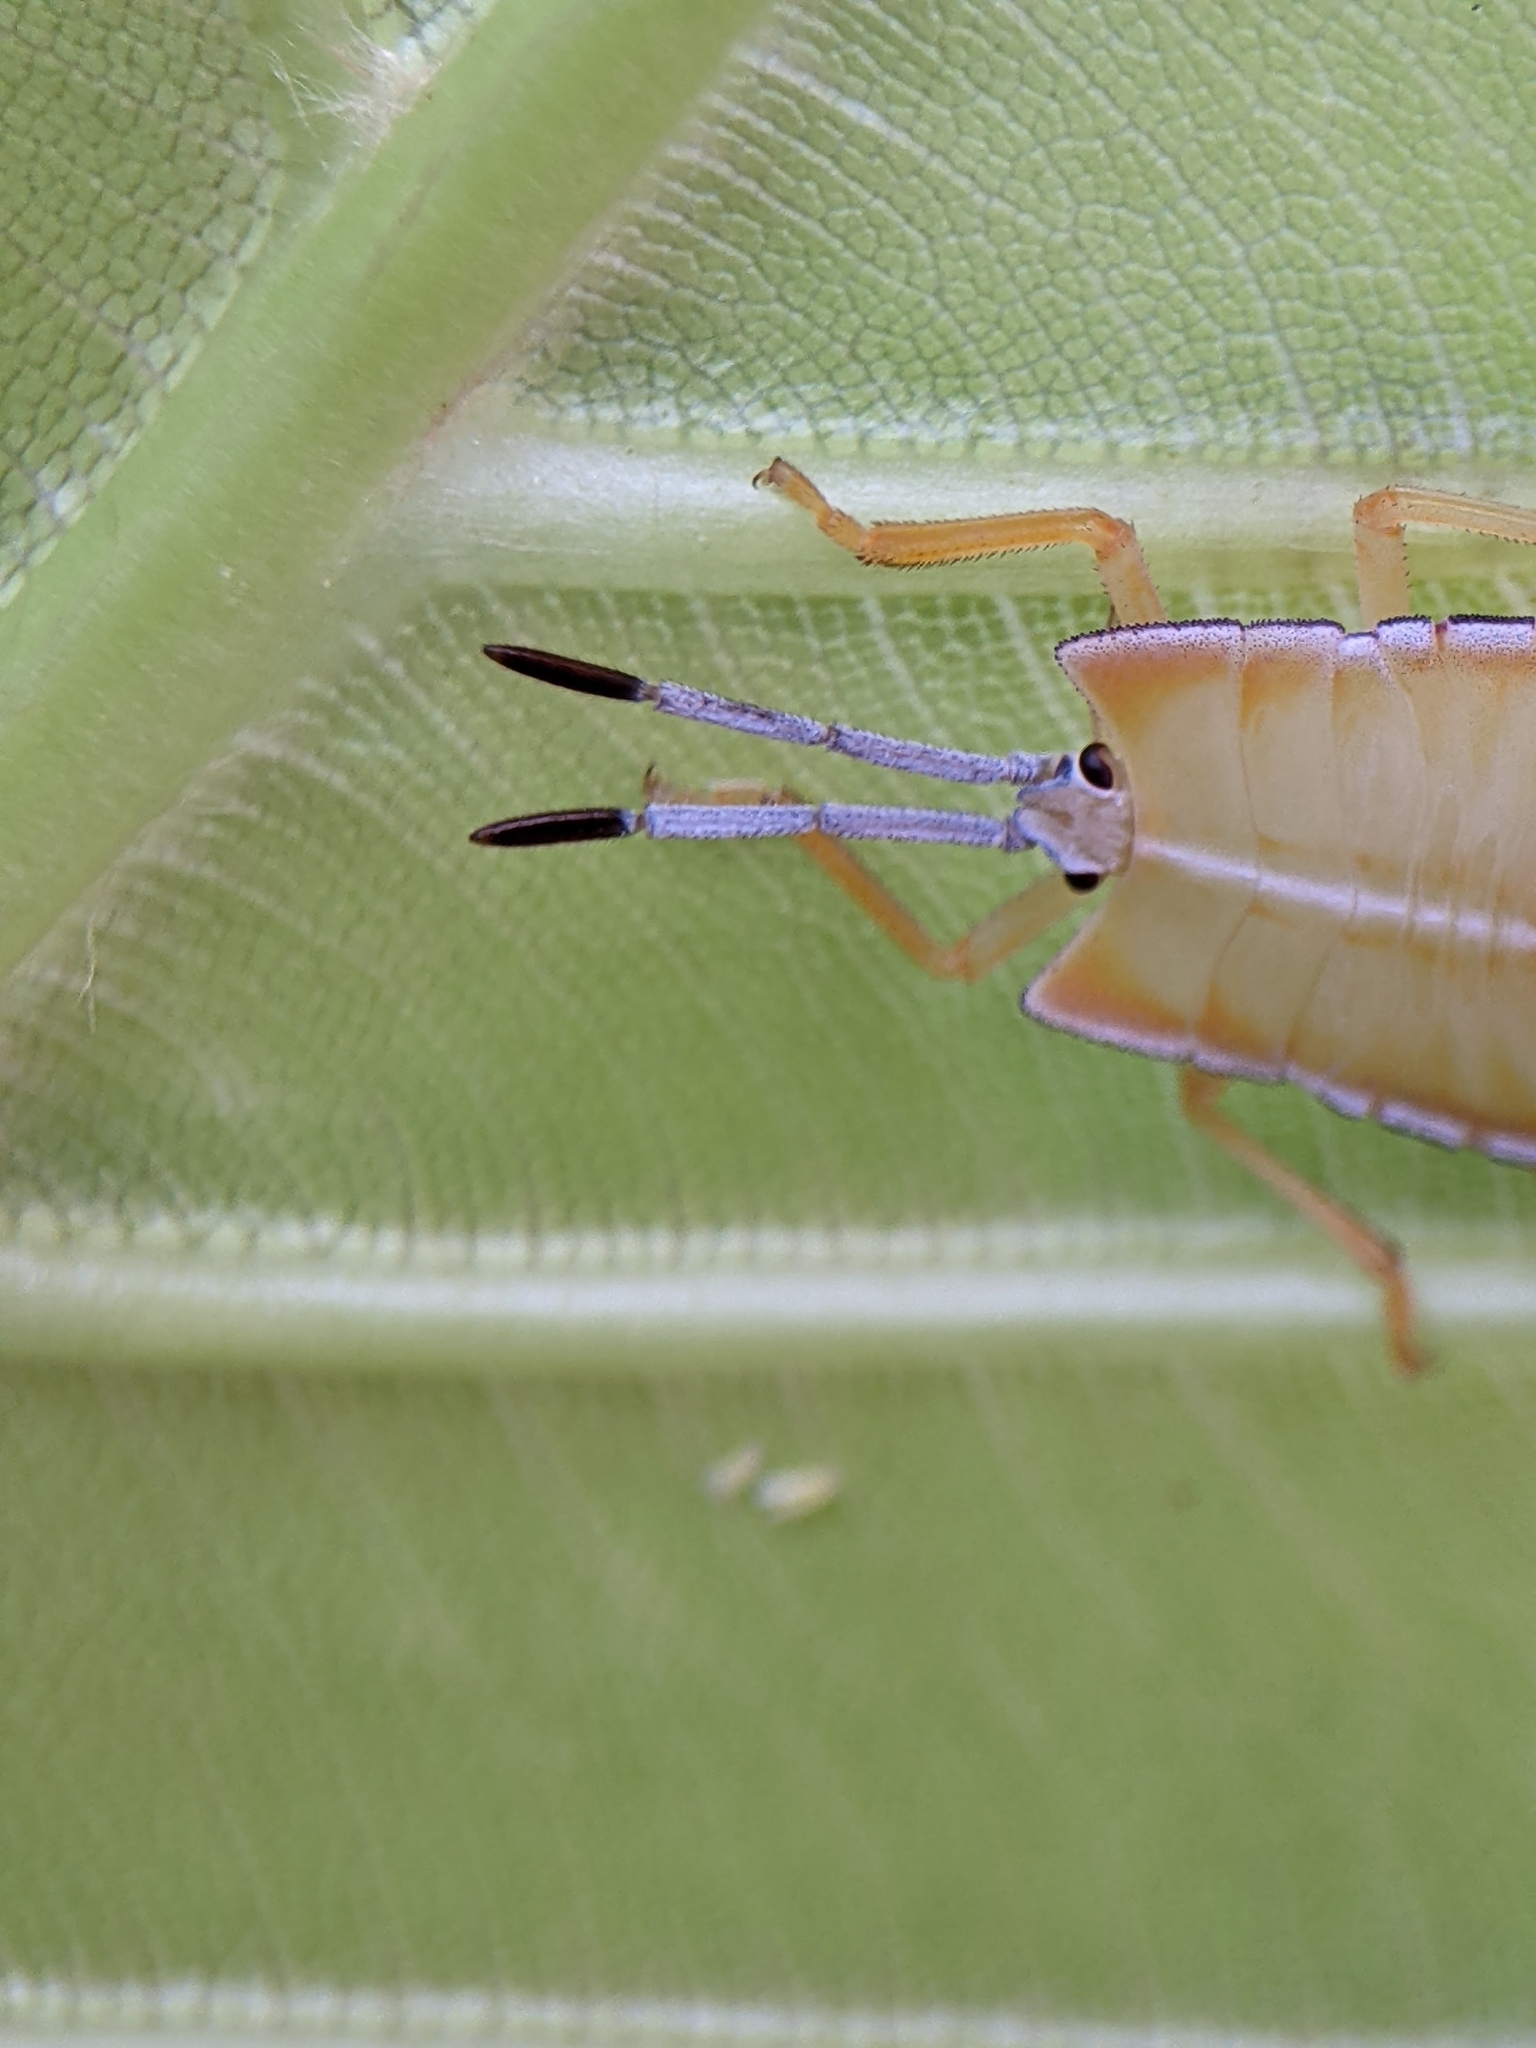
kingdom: Animalia
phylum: Arthropoda
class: Insecta
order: Hemiptera
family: Tessaratomidae
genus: Pycanum
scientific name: Pycanum alternatum
